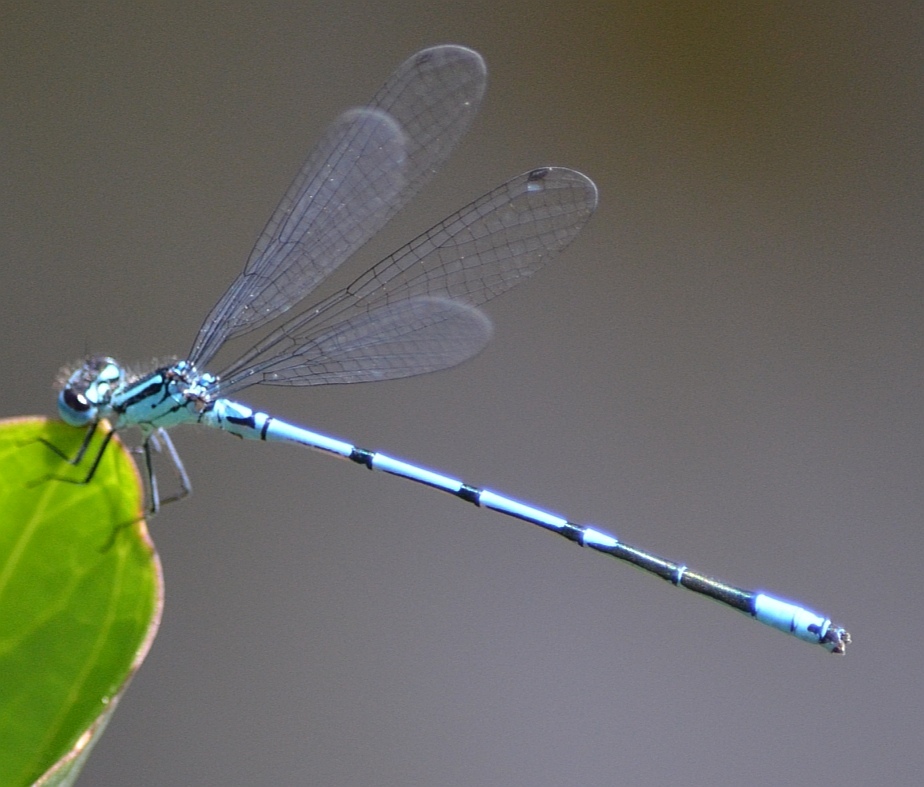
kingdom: Animalia
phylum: Arthropoda
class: Insecta
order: Odonata
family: Coenagrionidae
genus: Coenagrion
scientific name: Coenagrion puella
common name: Azure damselfly
